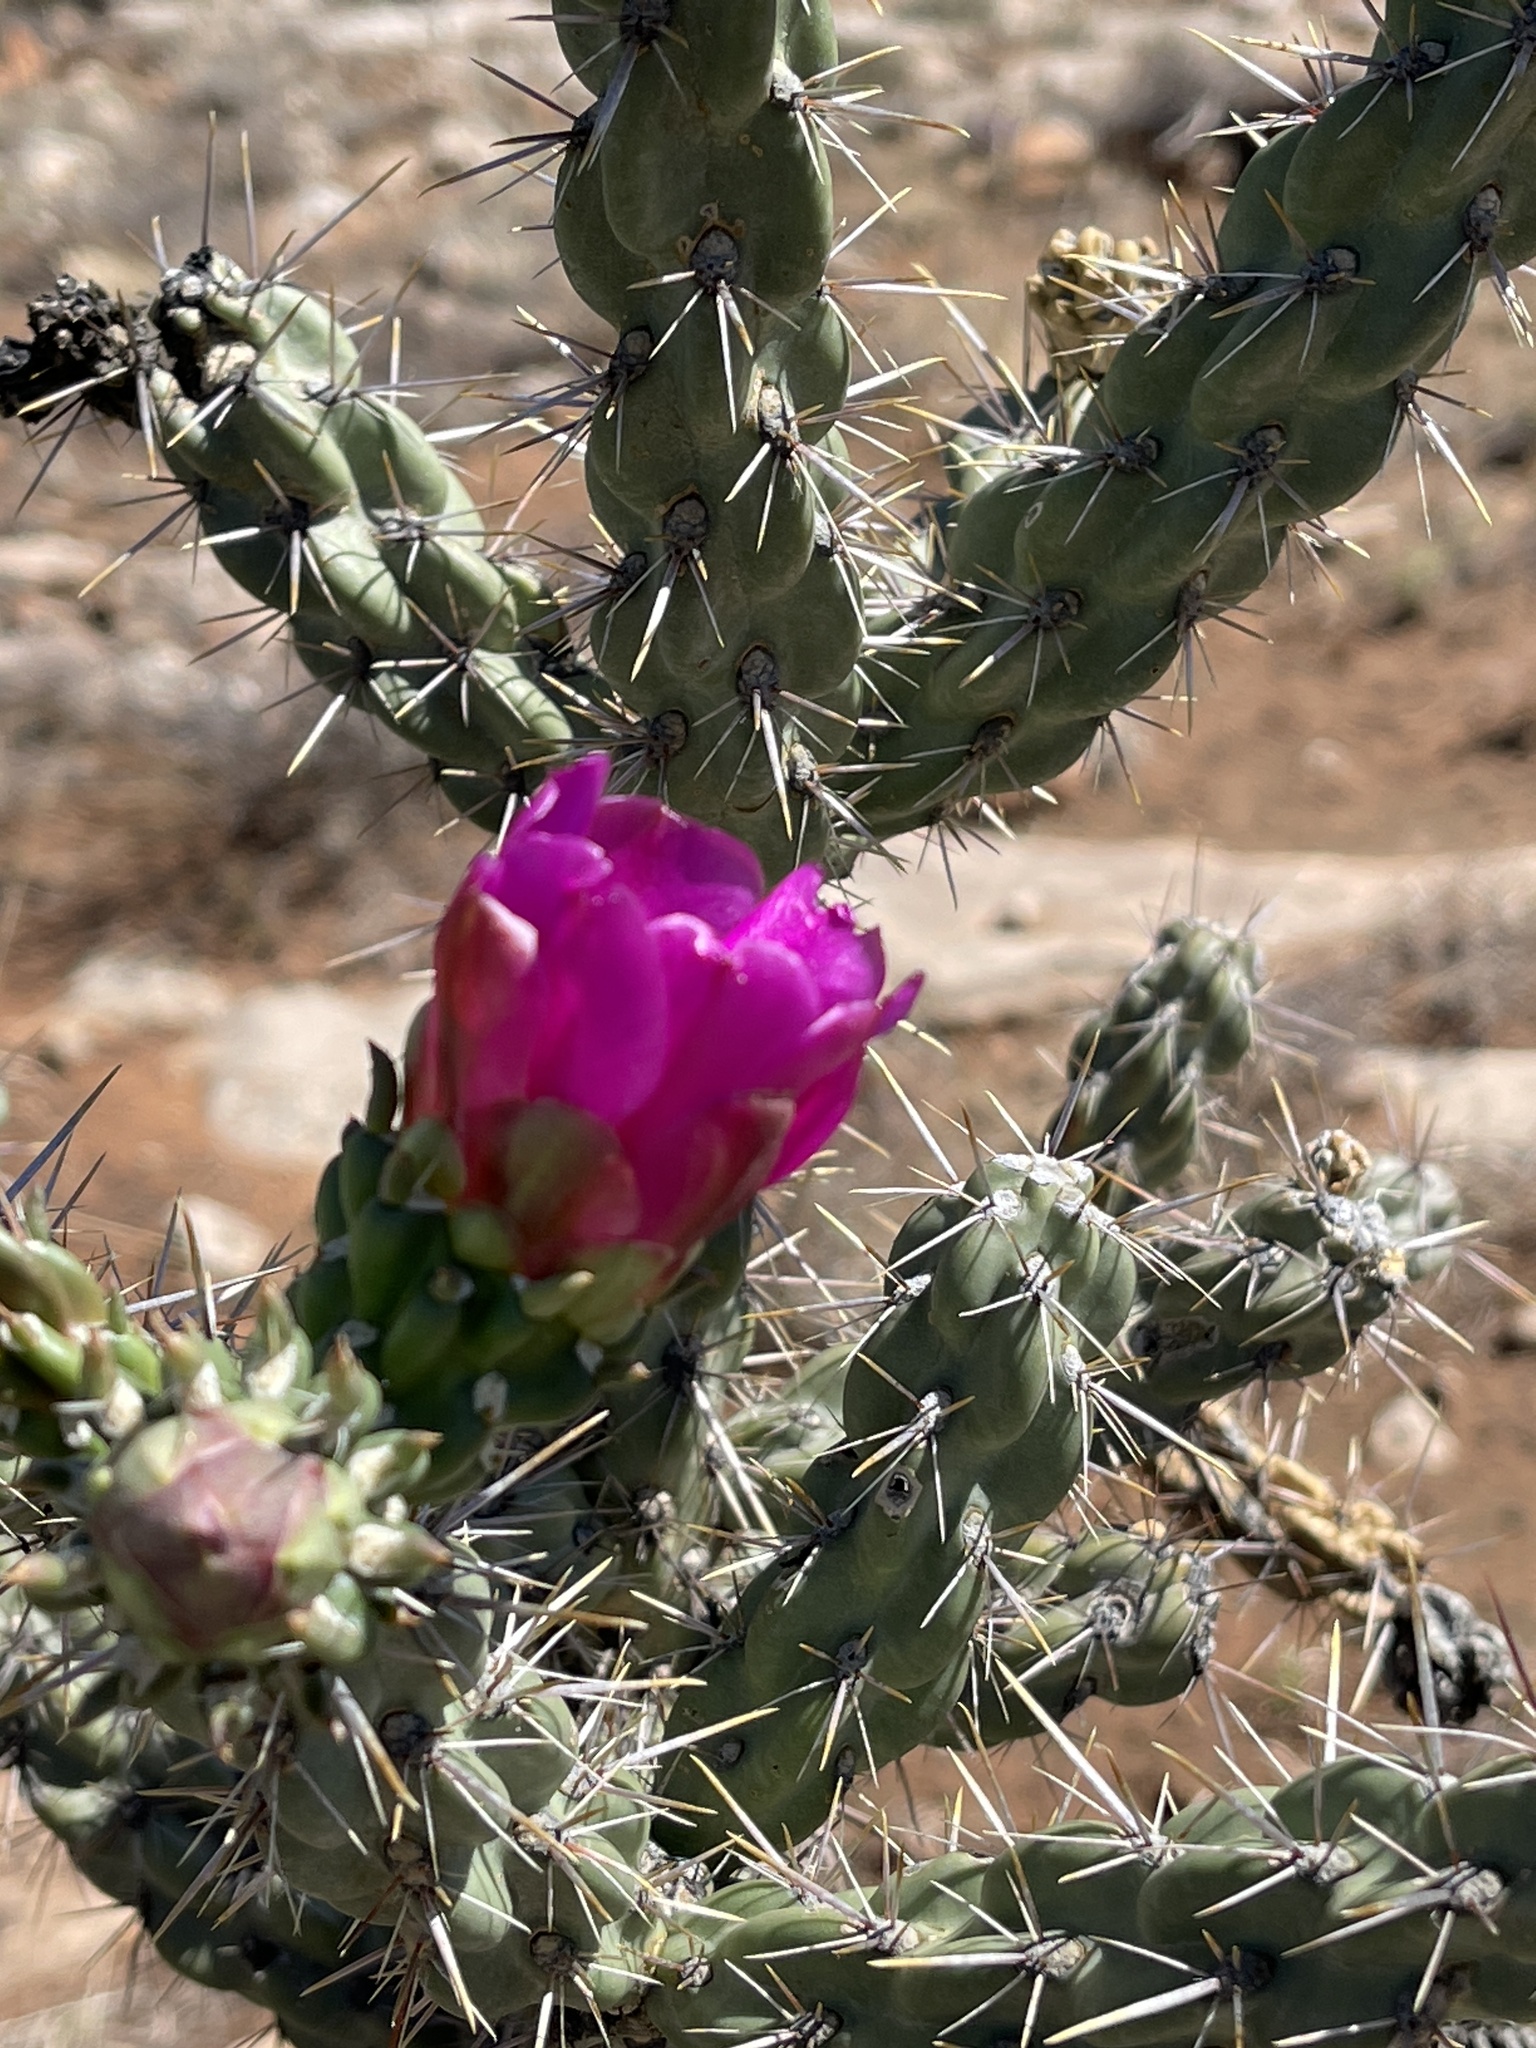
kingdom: Plantae
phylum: Tracheophyta
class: Magnoliopsida
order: Caryophyllales
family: Cactaceae
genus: Cylindropuntia
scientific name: Cylindropuntia imbricata
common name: Candelabrum cactus
